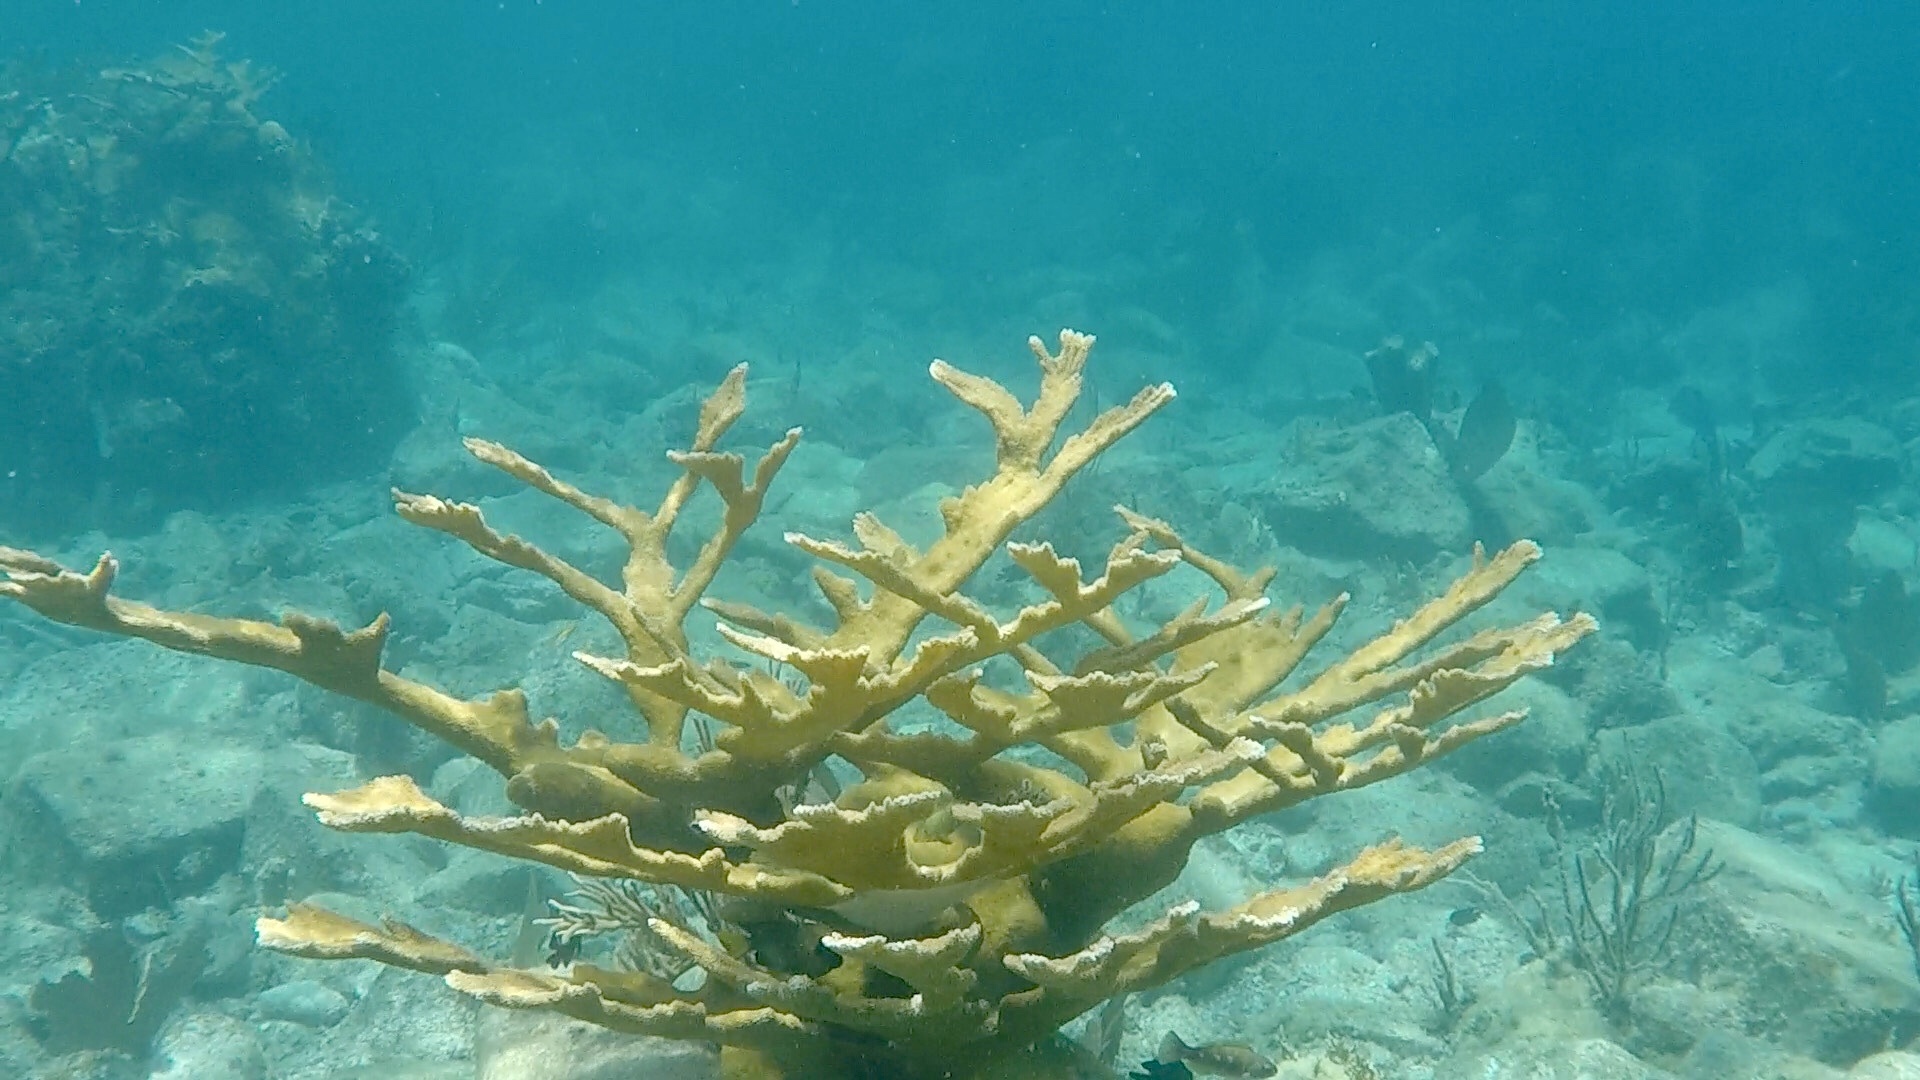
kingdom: Animalia
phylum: Cnidaria
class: Anthozoa
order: Scleractinia
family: Acroporidae
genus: Acropora
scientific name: Acropora palmata
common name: Elkhorn coral
